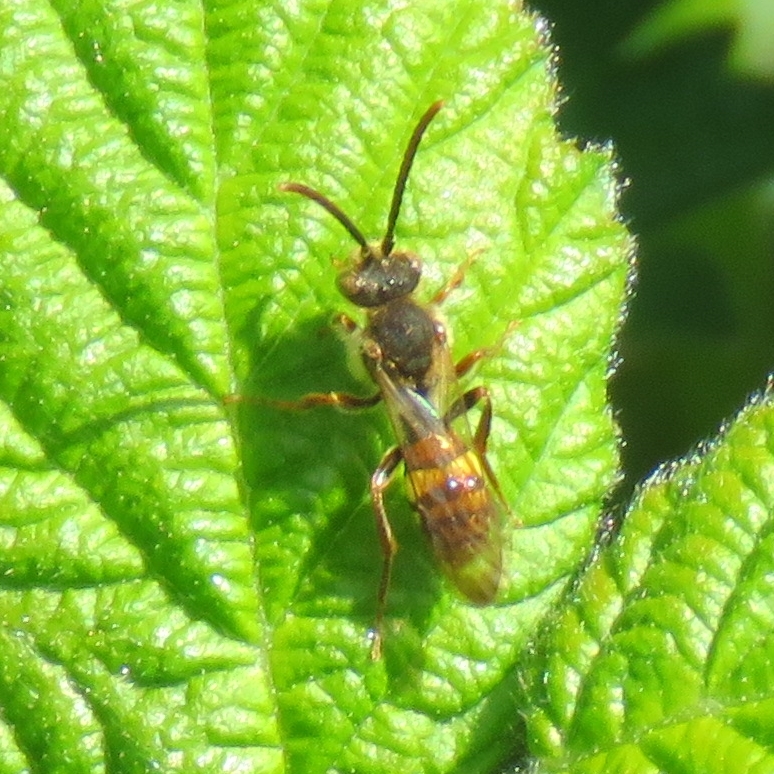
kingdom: Animalia
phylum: Arthropoda
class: Insecta
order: Hymenoptera
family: Apidae
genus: Nomada
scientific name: Nomada
